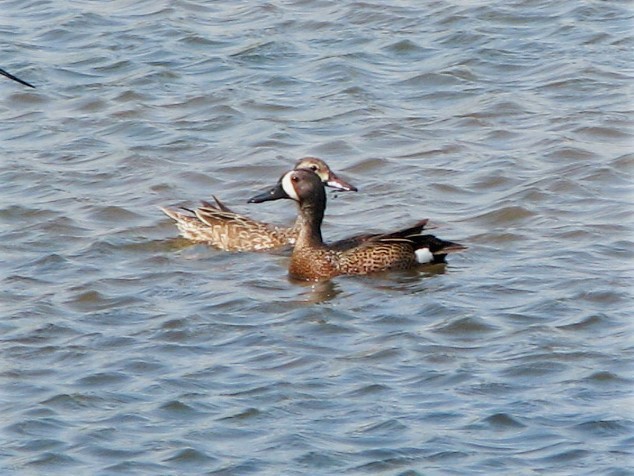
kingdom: Animalia
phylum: Chordata
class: Aves
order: Anseriformes
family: Anatidae
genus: Spatula
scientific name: Spatula discors
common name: Blue-winged teal
